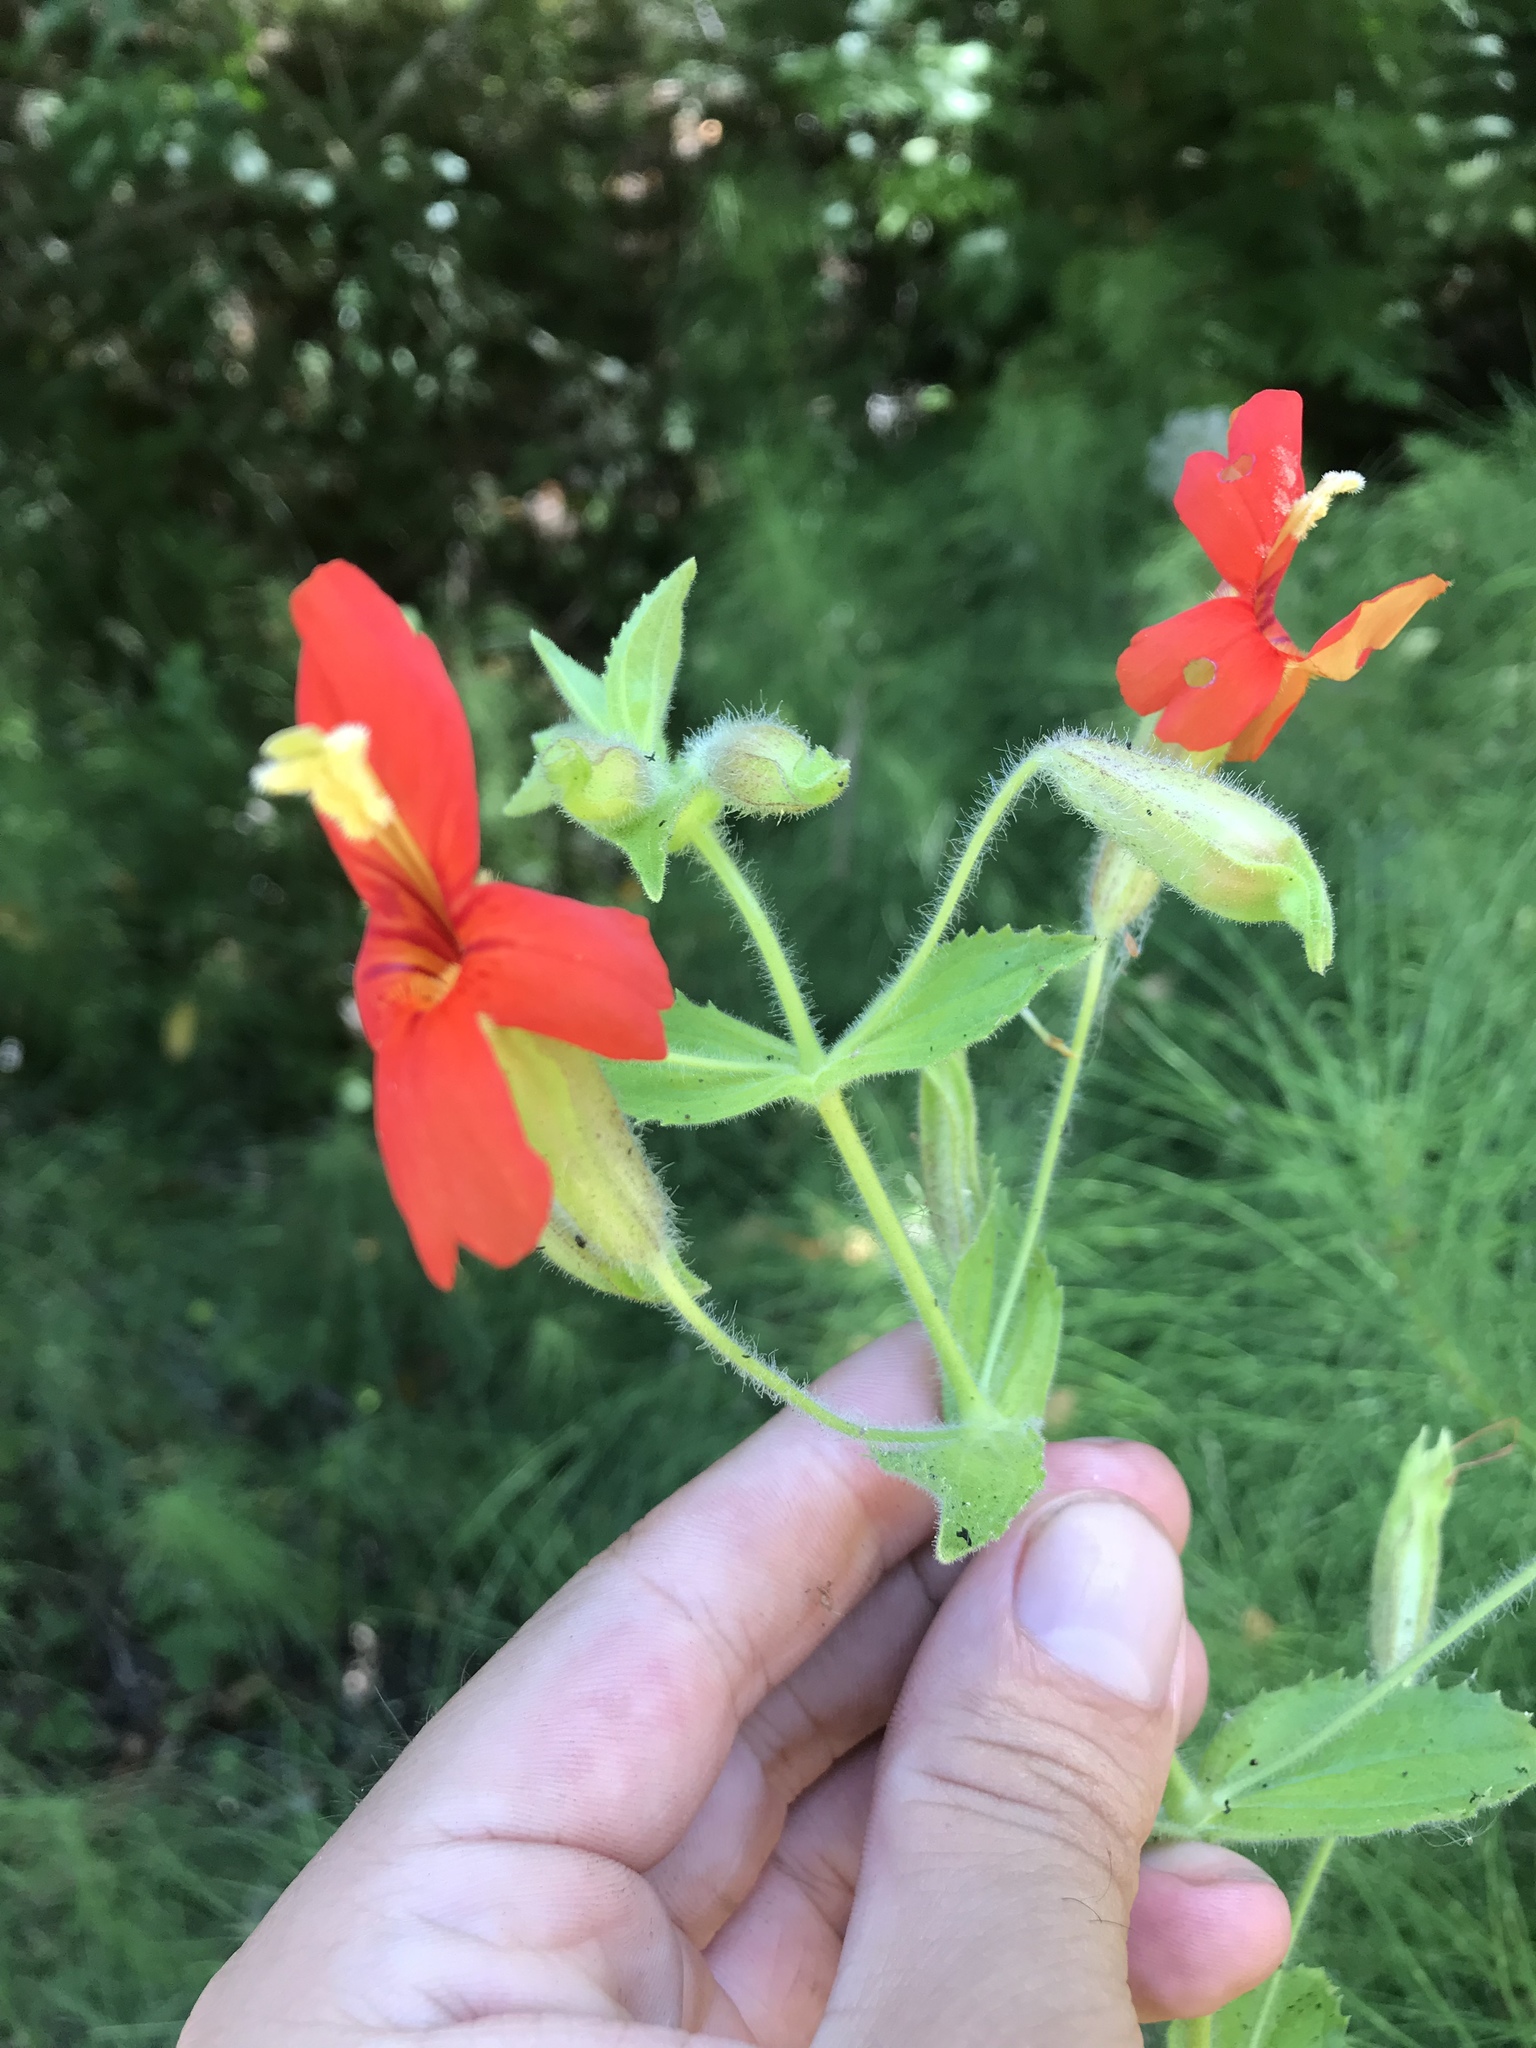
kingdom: Plantae
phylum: Tracheophyta
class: Magnoliopsida
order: Lamiales
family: Phrymaceae
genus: Erythranthe
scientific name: Erythranthe cardinalis
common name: Scarlet monkey-flower
